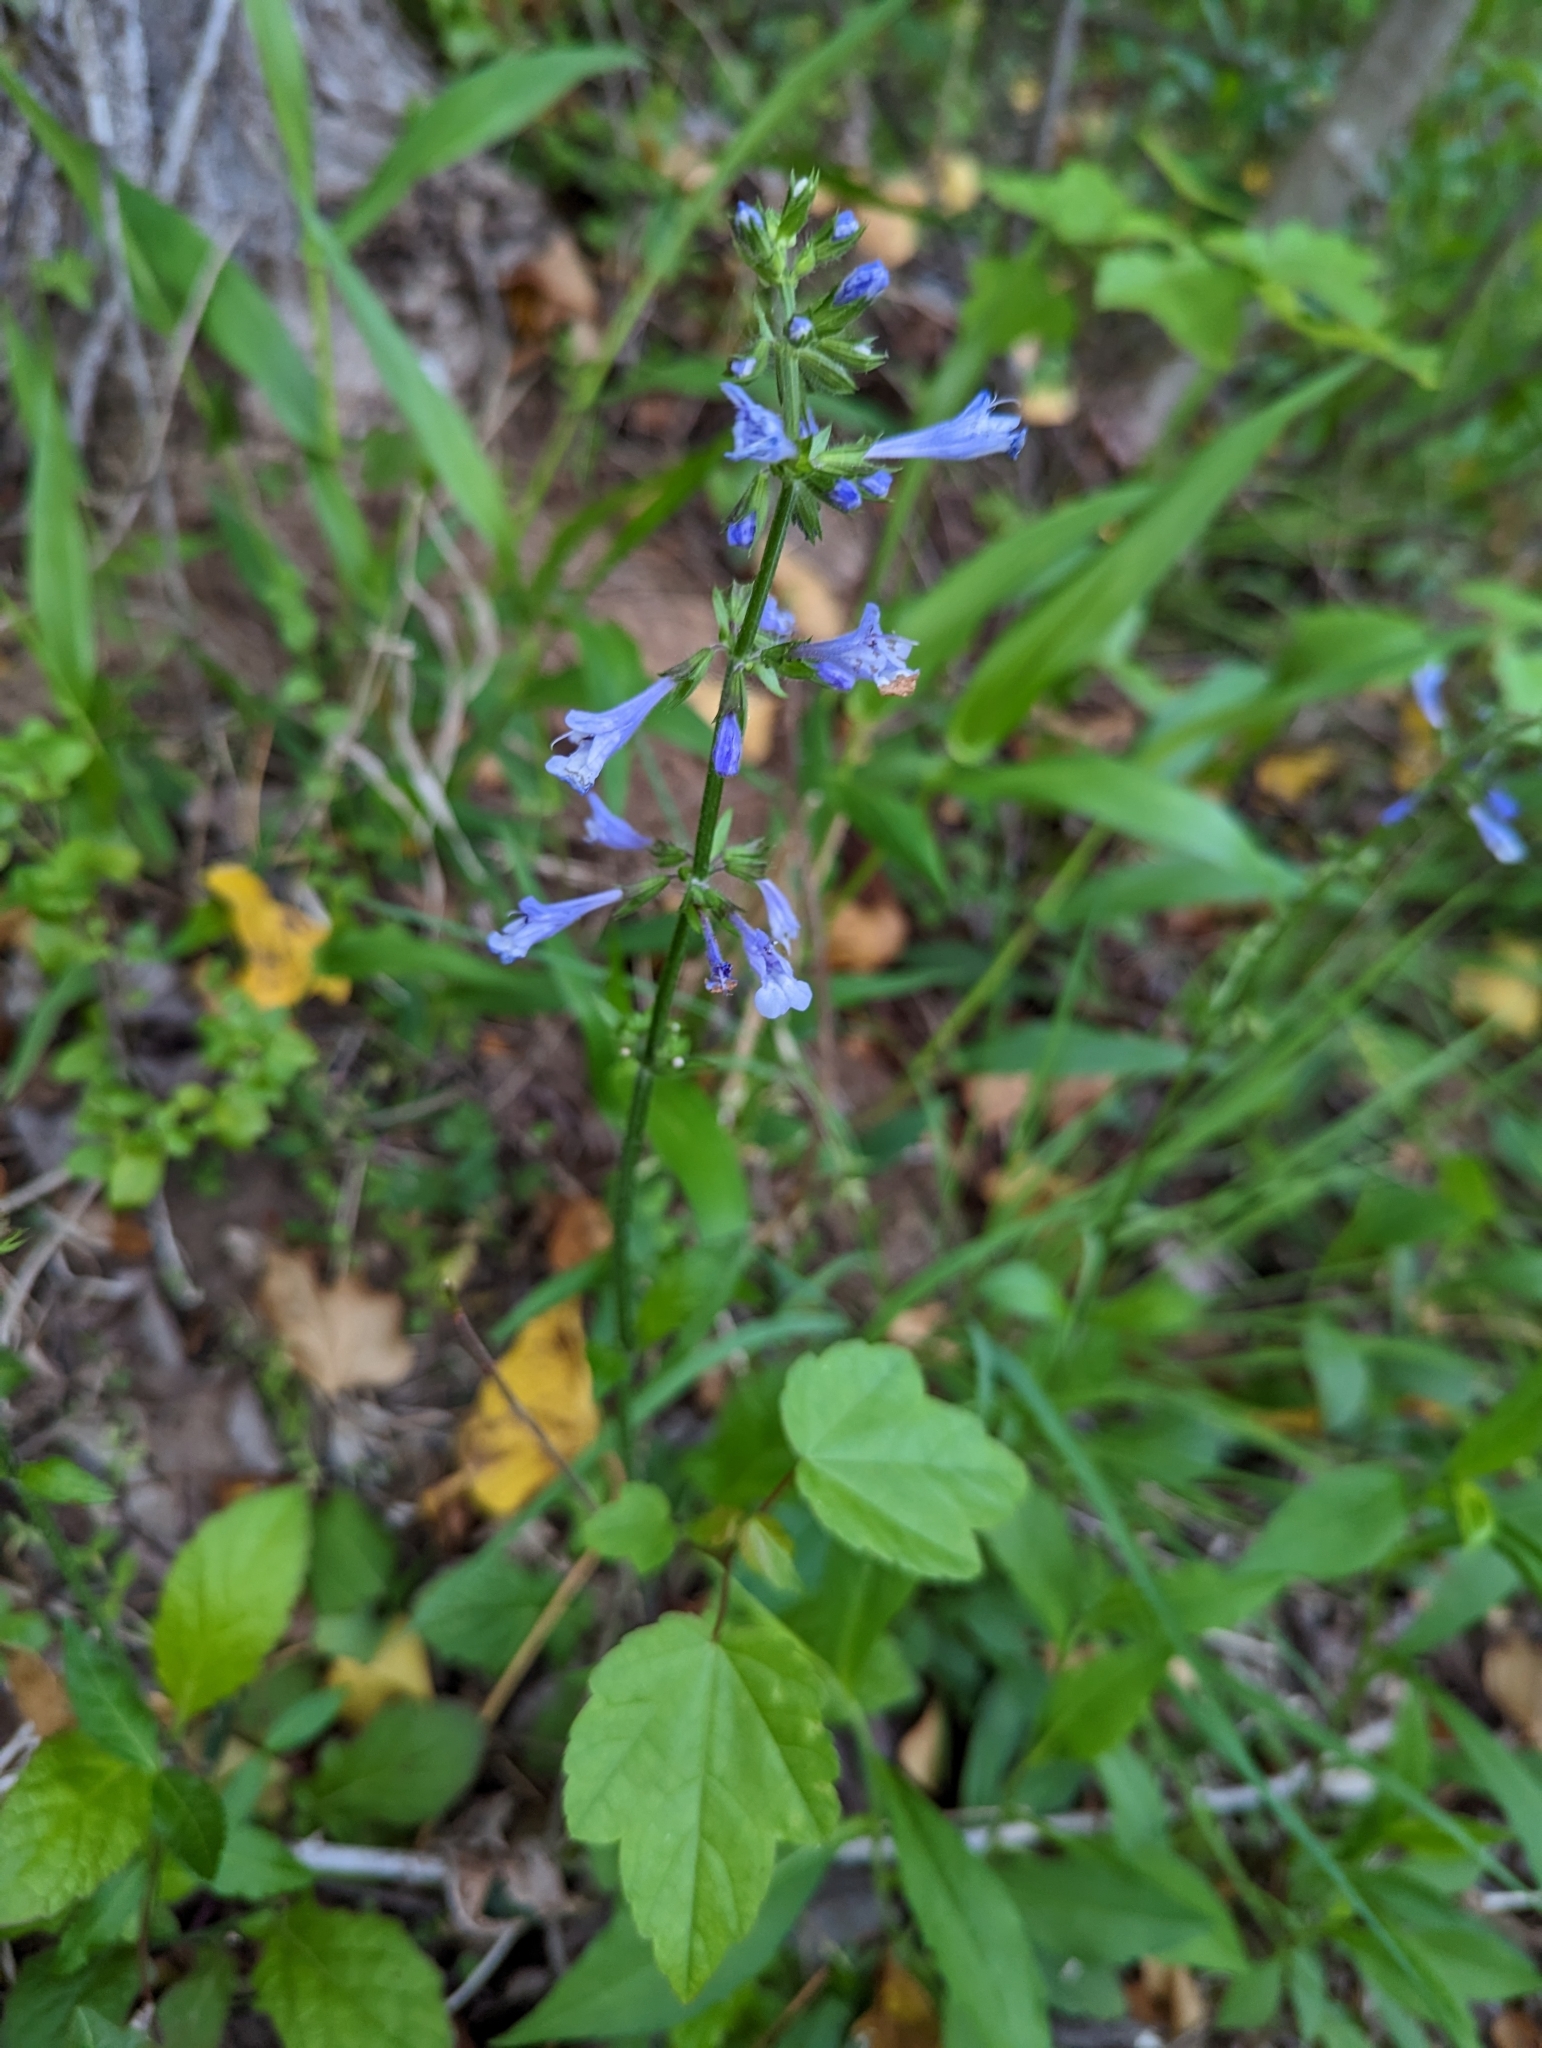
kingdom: Plantae
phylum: Tracheophyta
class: Magnoliopsida
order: Lamiales
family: Lamiaceae
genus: Salvia
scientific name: Salvia lyrata
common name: Cancerweed
